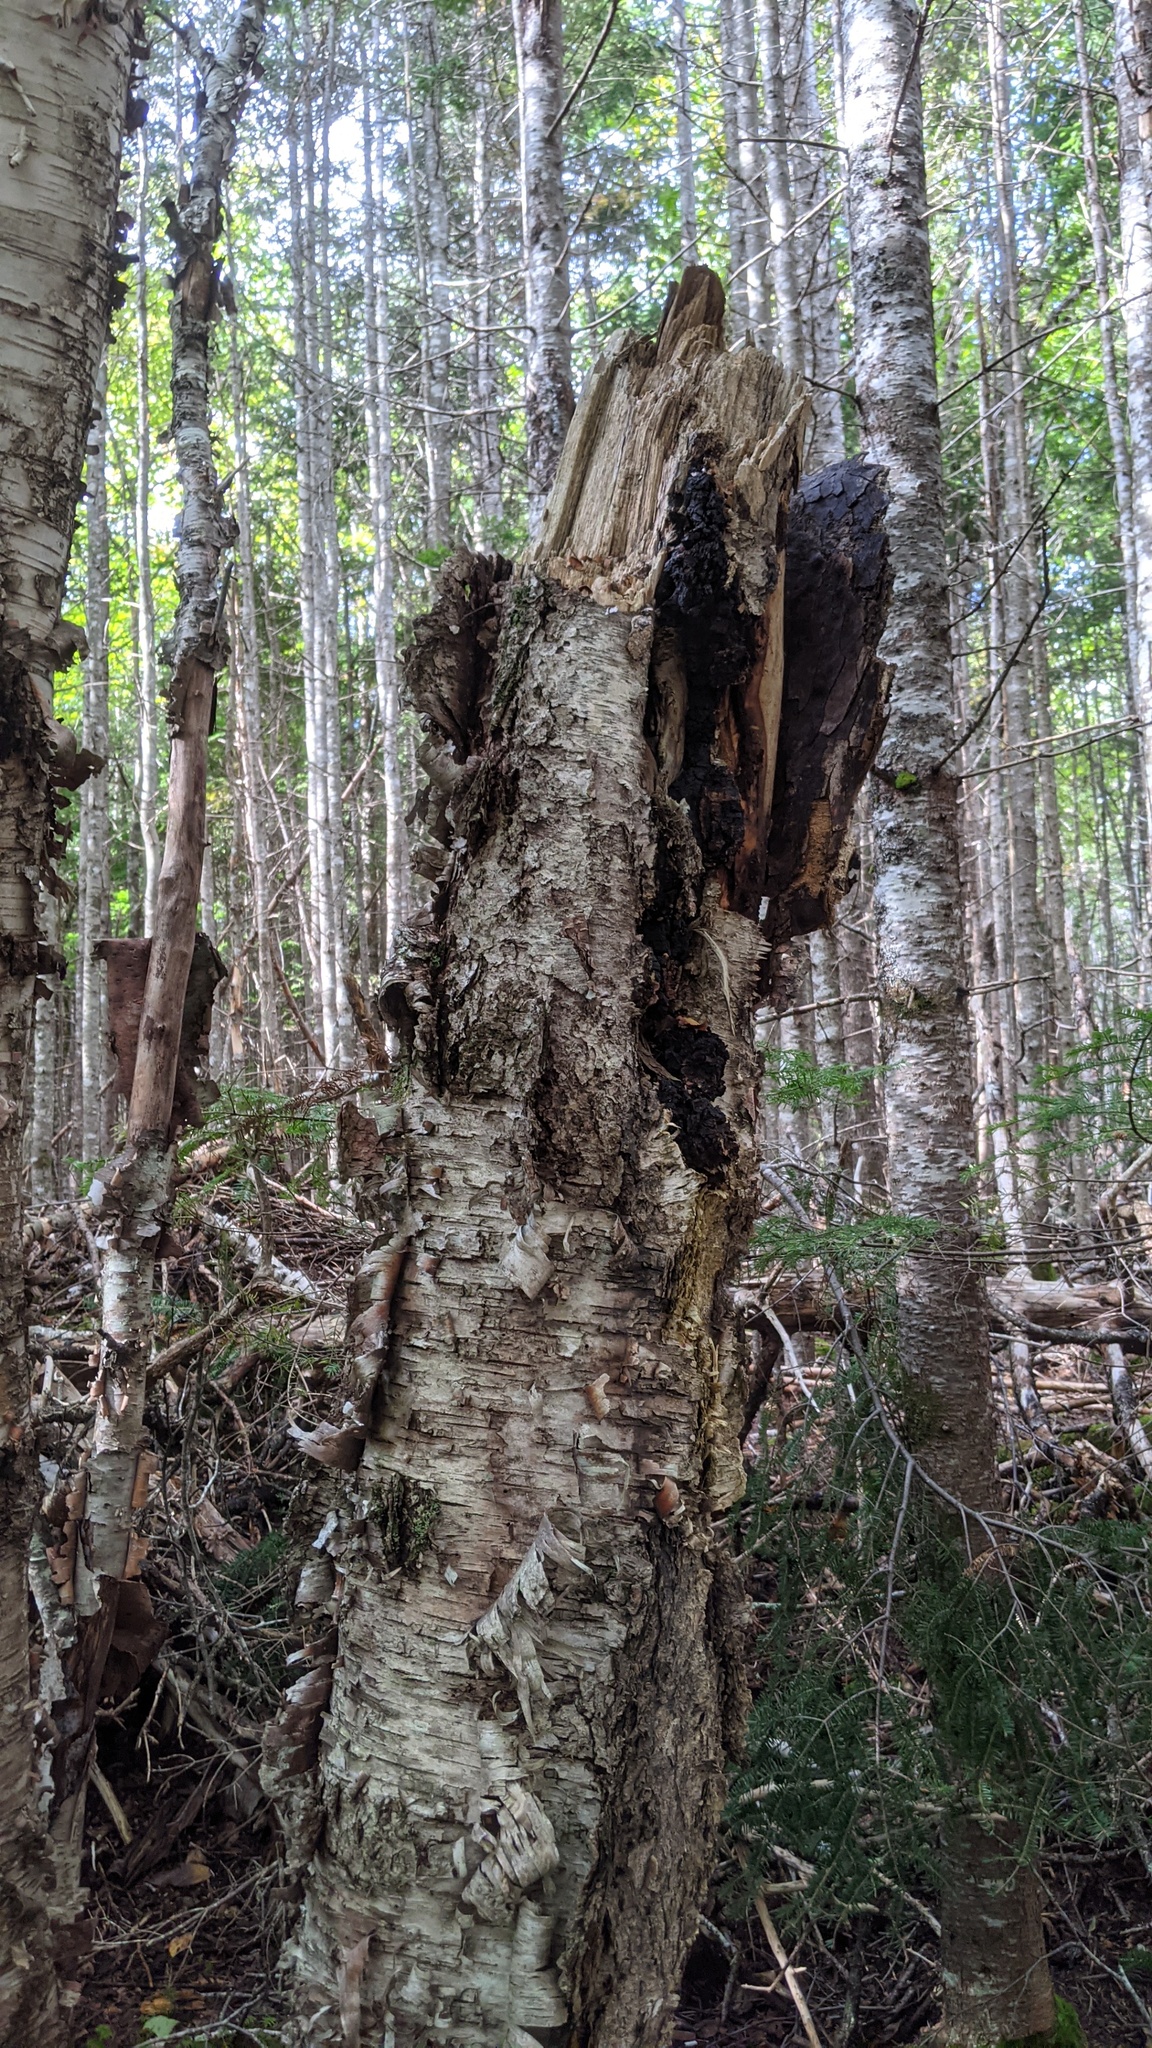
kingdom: Fungi
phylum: Basidiomycota
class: Agaricomycetes
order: Hymenochaetales
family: Hymenochaetaceae
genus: Inonotus
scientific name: Inonotus obliquus
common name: Chaga
